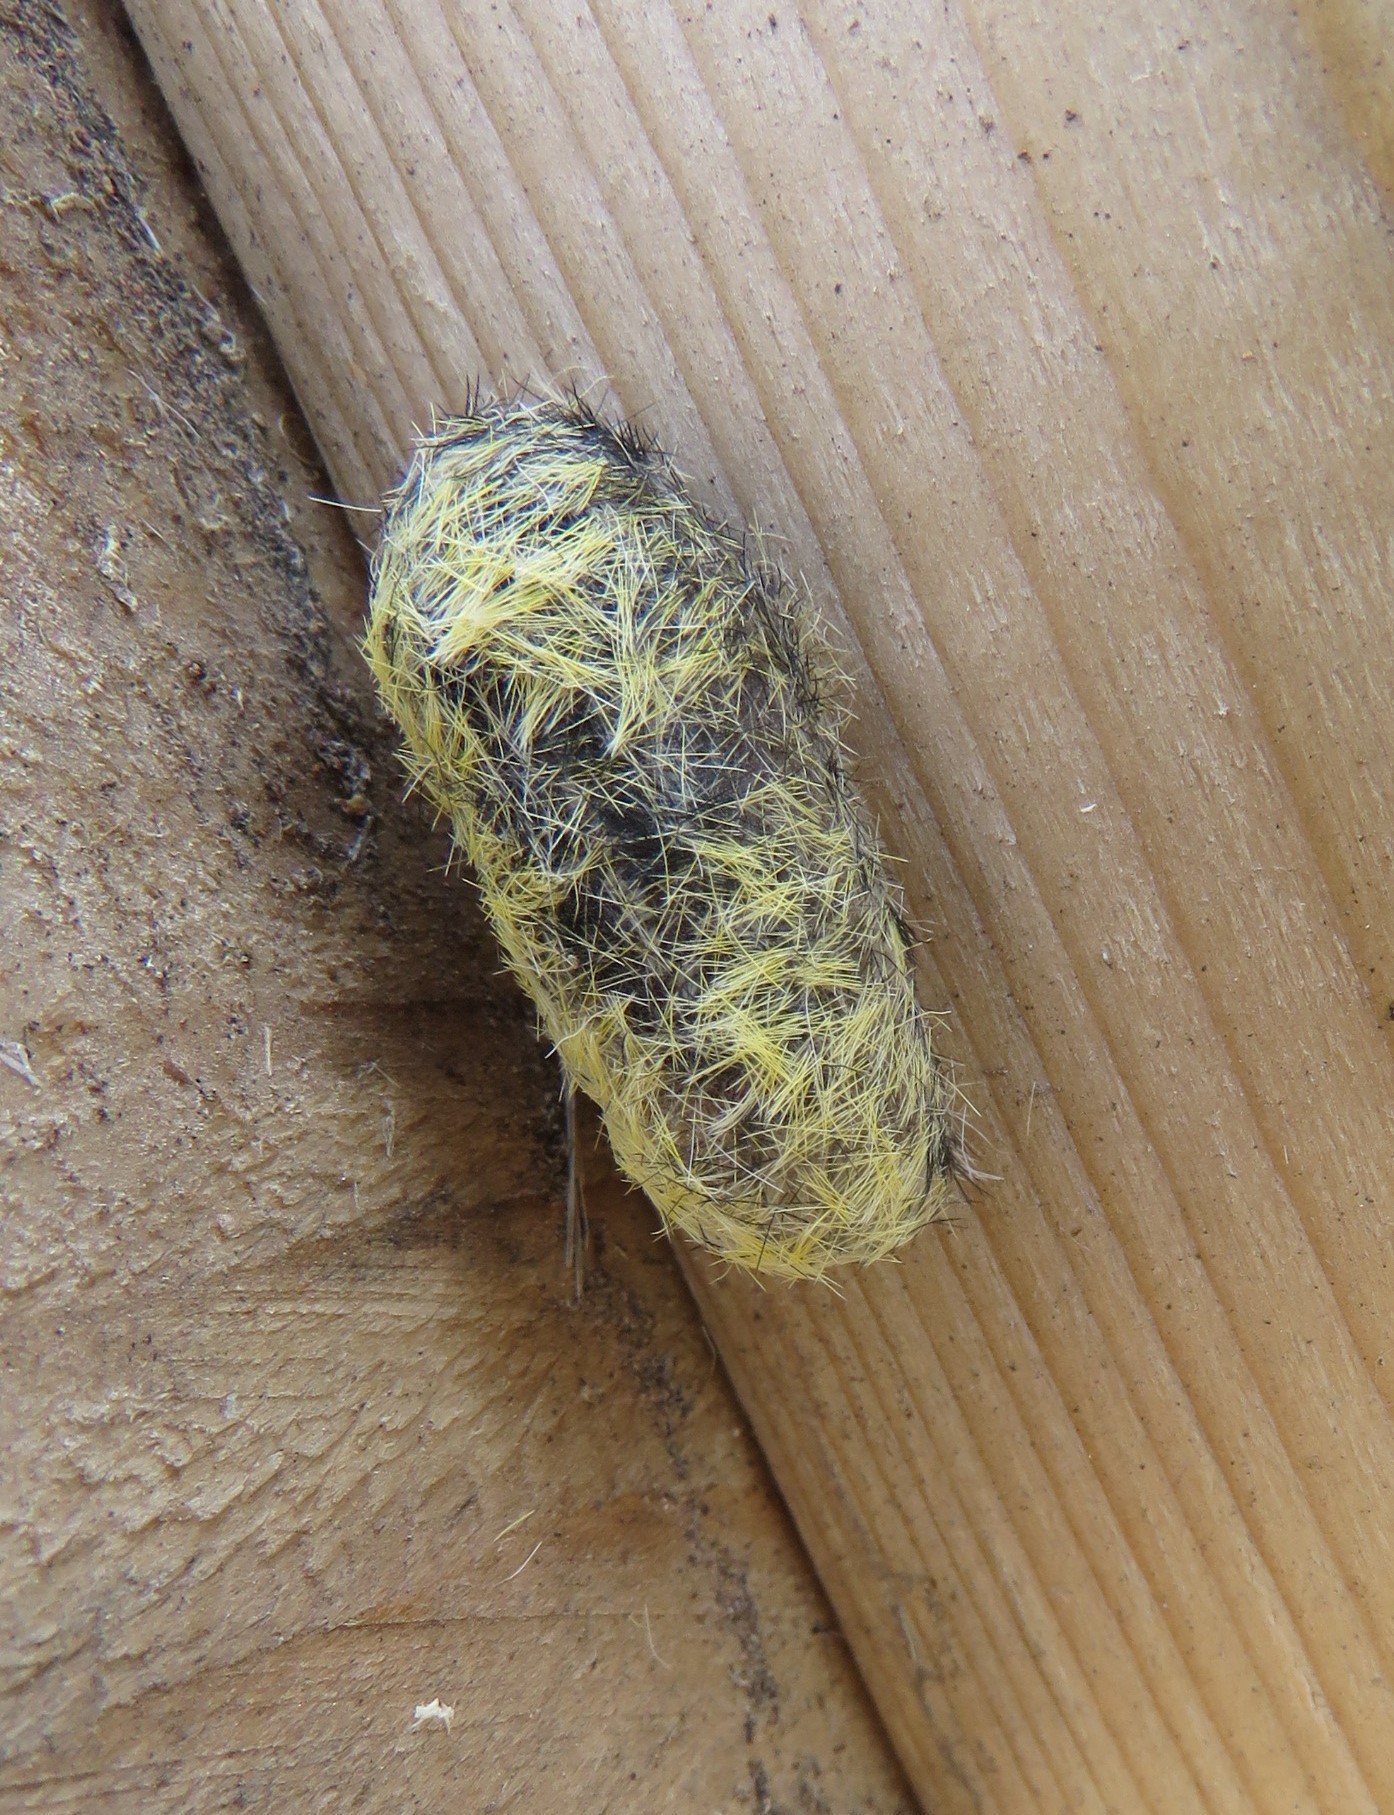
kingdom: Animalia
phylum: Arthropoda
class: Insecta
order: Lepidoptera
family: Erebidae
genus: Ctenucha
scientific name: Ctenucha virginica
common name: Virginia ctenucha moth
